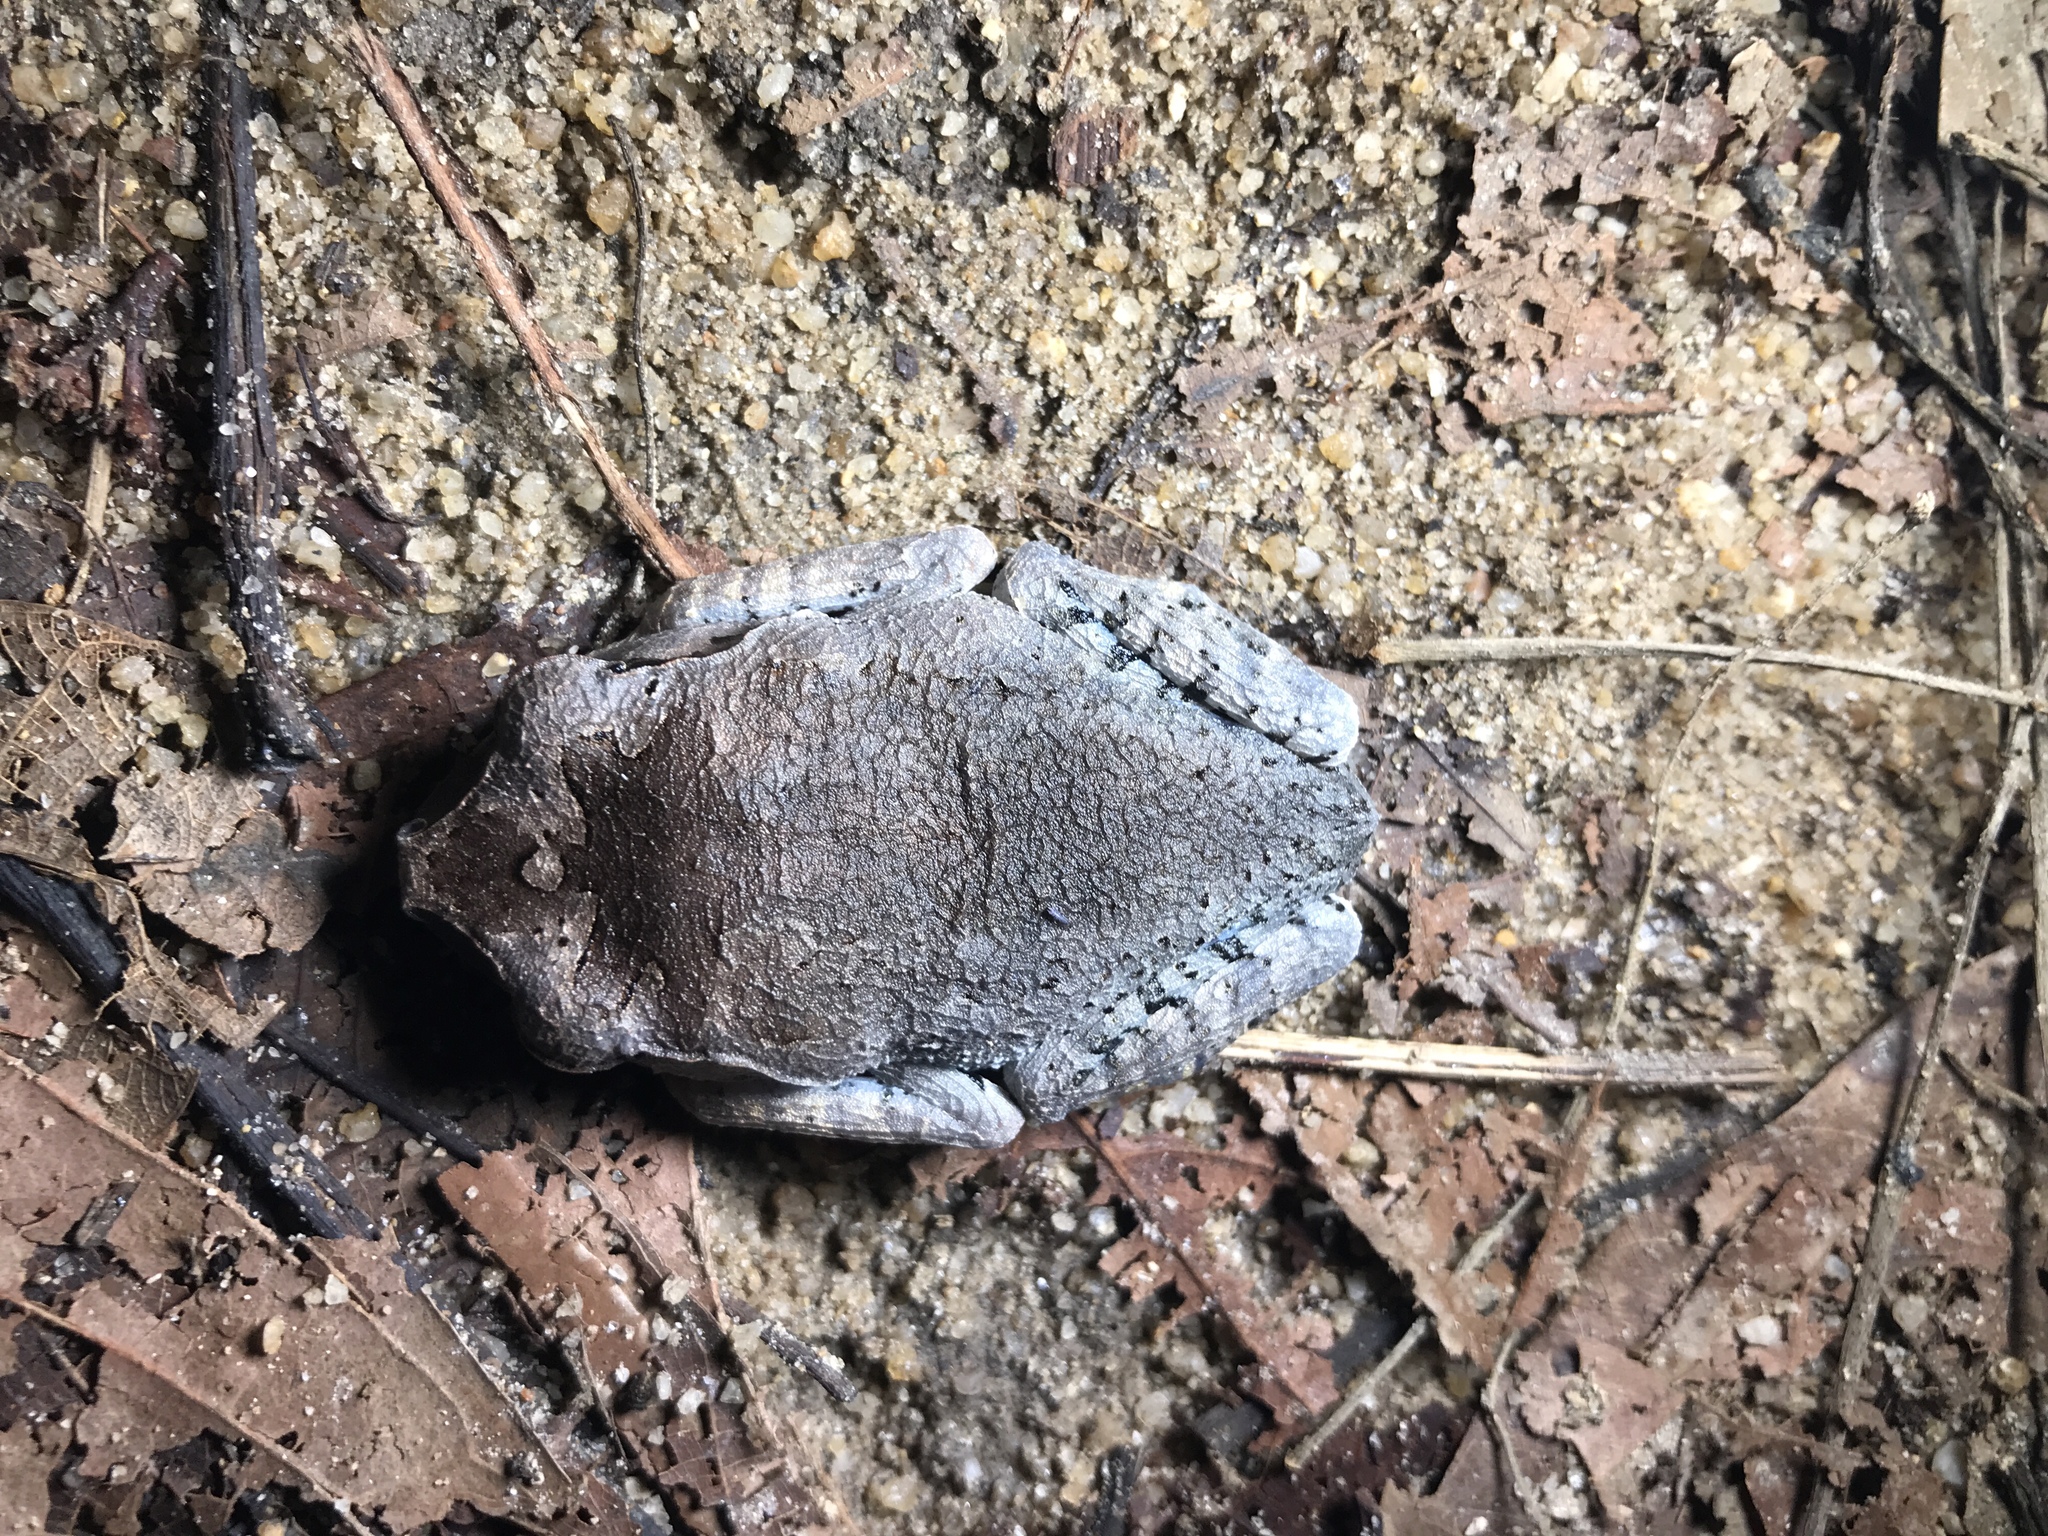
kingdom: Animalia
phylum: Chordata
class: Amphibia
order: Anura
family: Megophryidae
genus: Leptobrachium
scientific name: Leptobrachium hendricksoni
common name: Spotted litter frog
